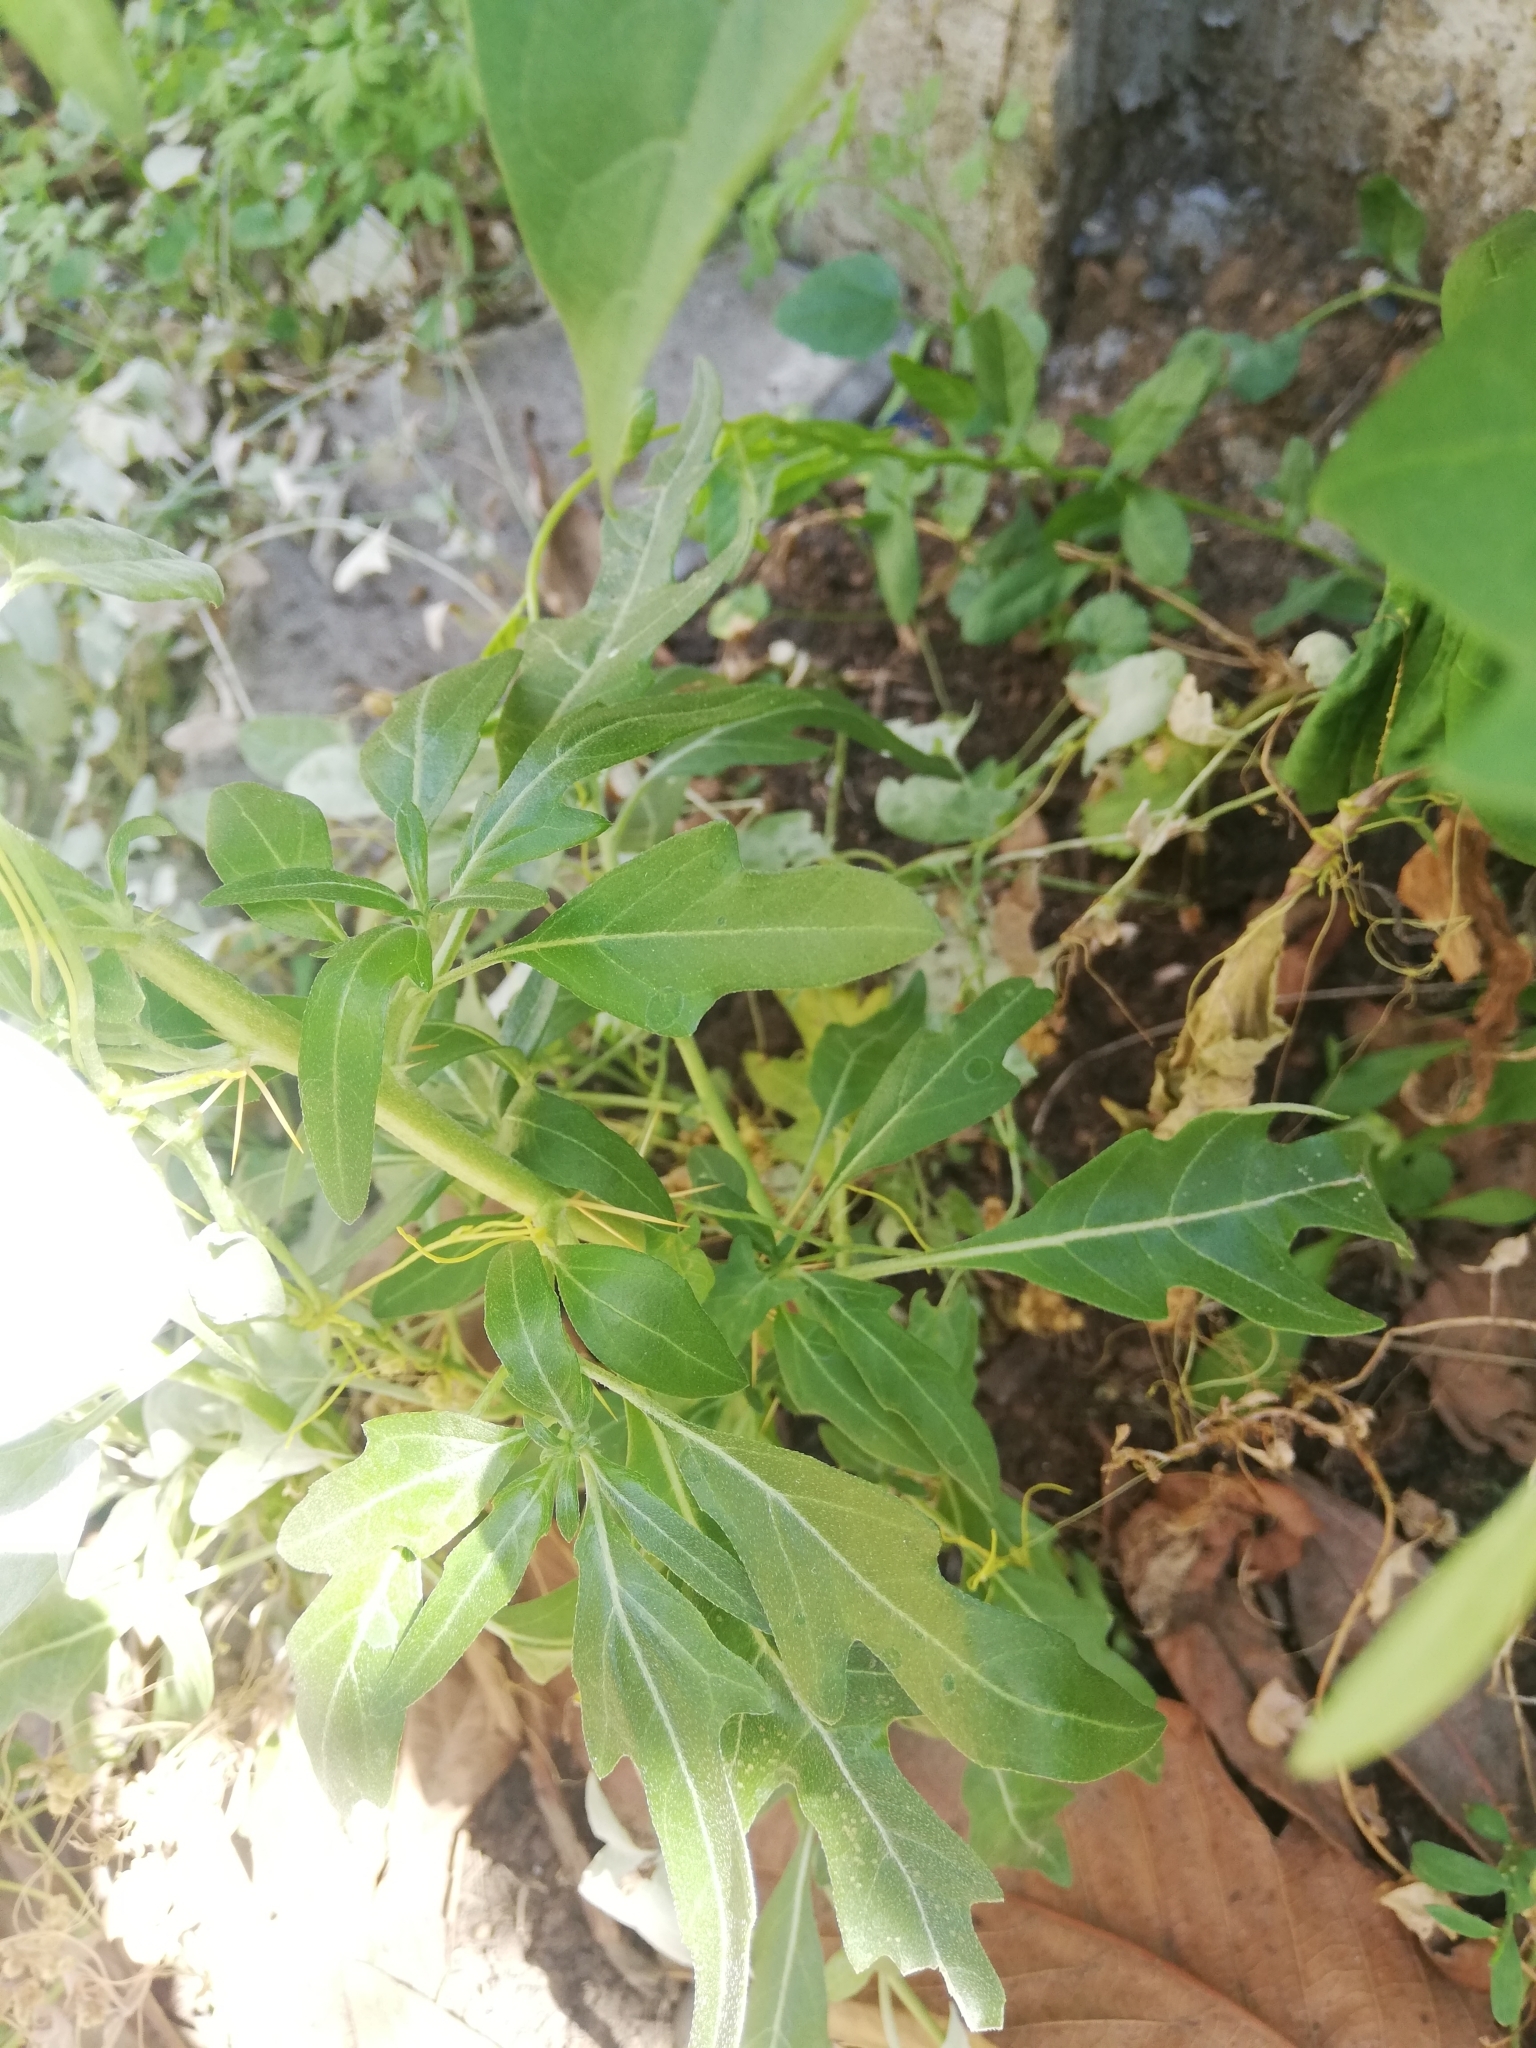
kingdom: Plantae
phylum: Tracheophyta
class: Magnoliopsida
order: Asterales
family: Asteraceae
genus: Xanthium
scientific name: Xanthium spinosum
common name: Spiny cocklebur
